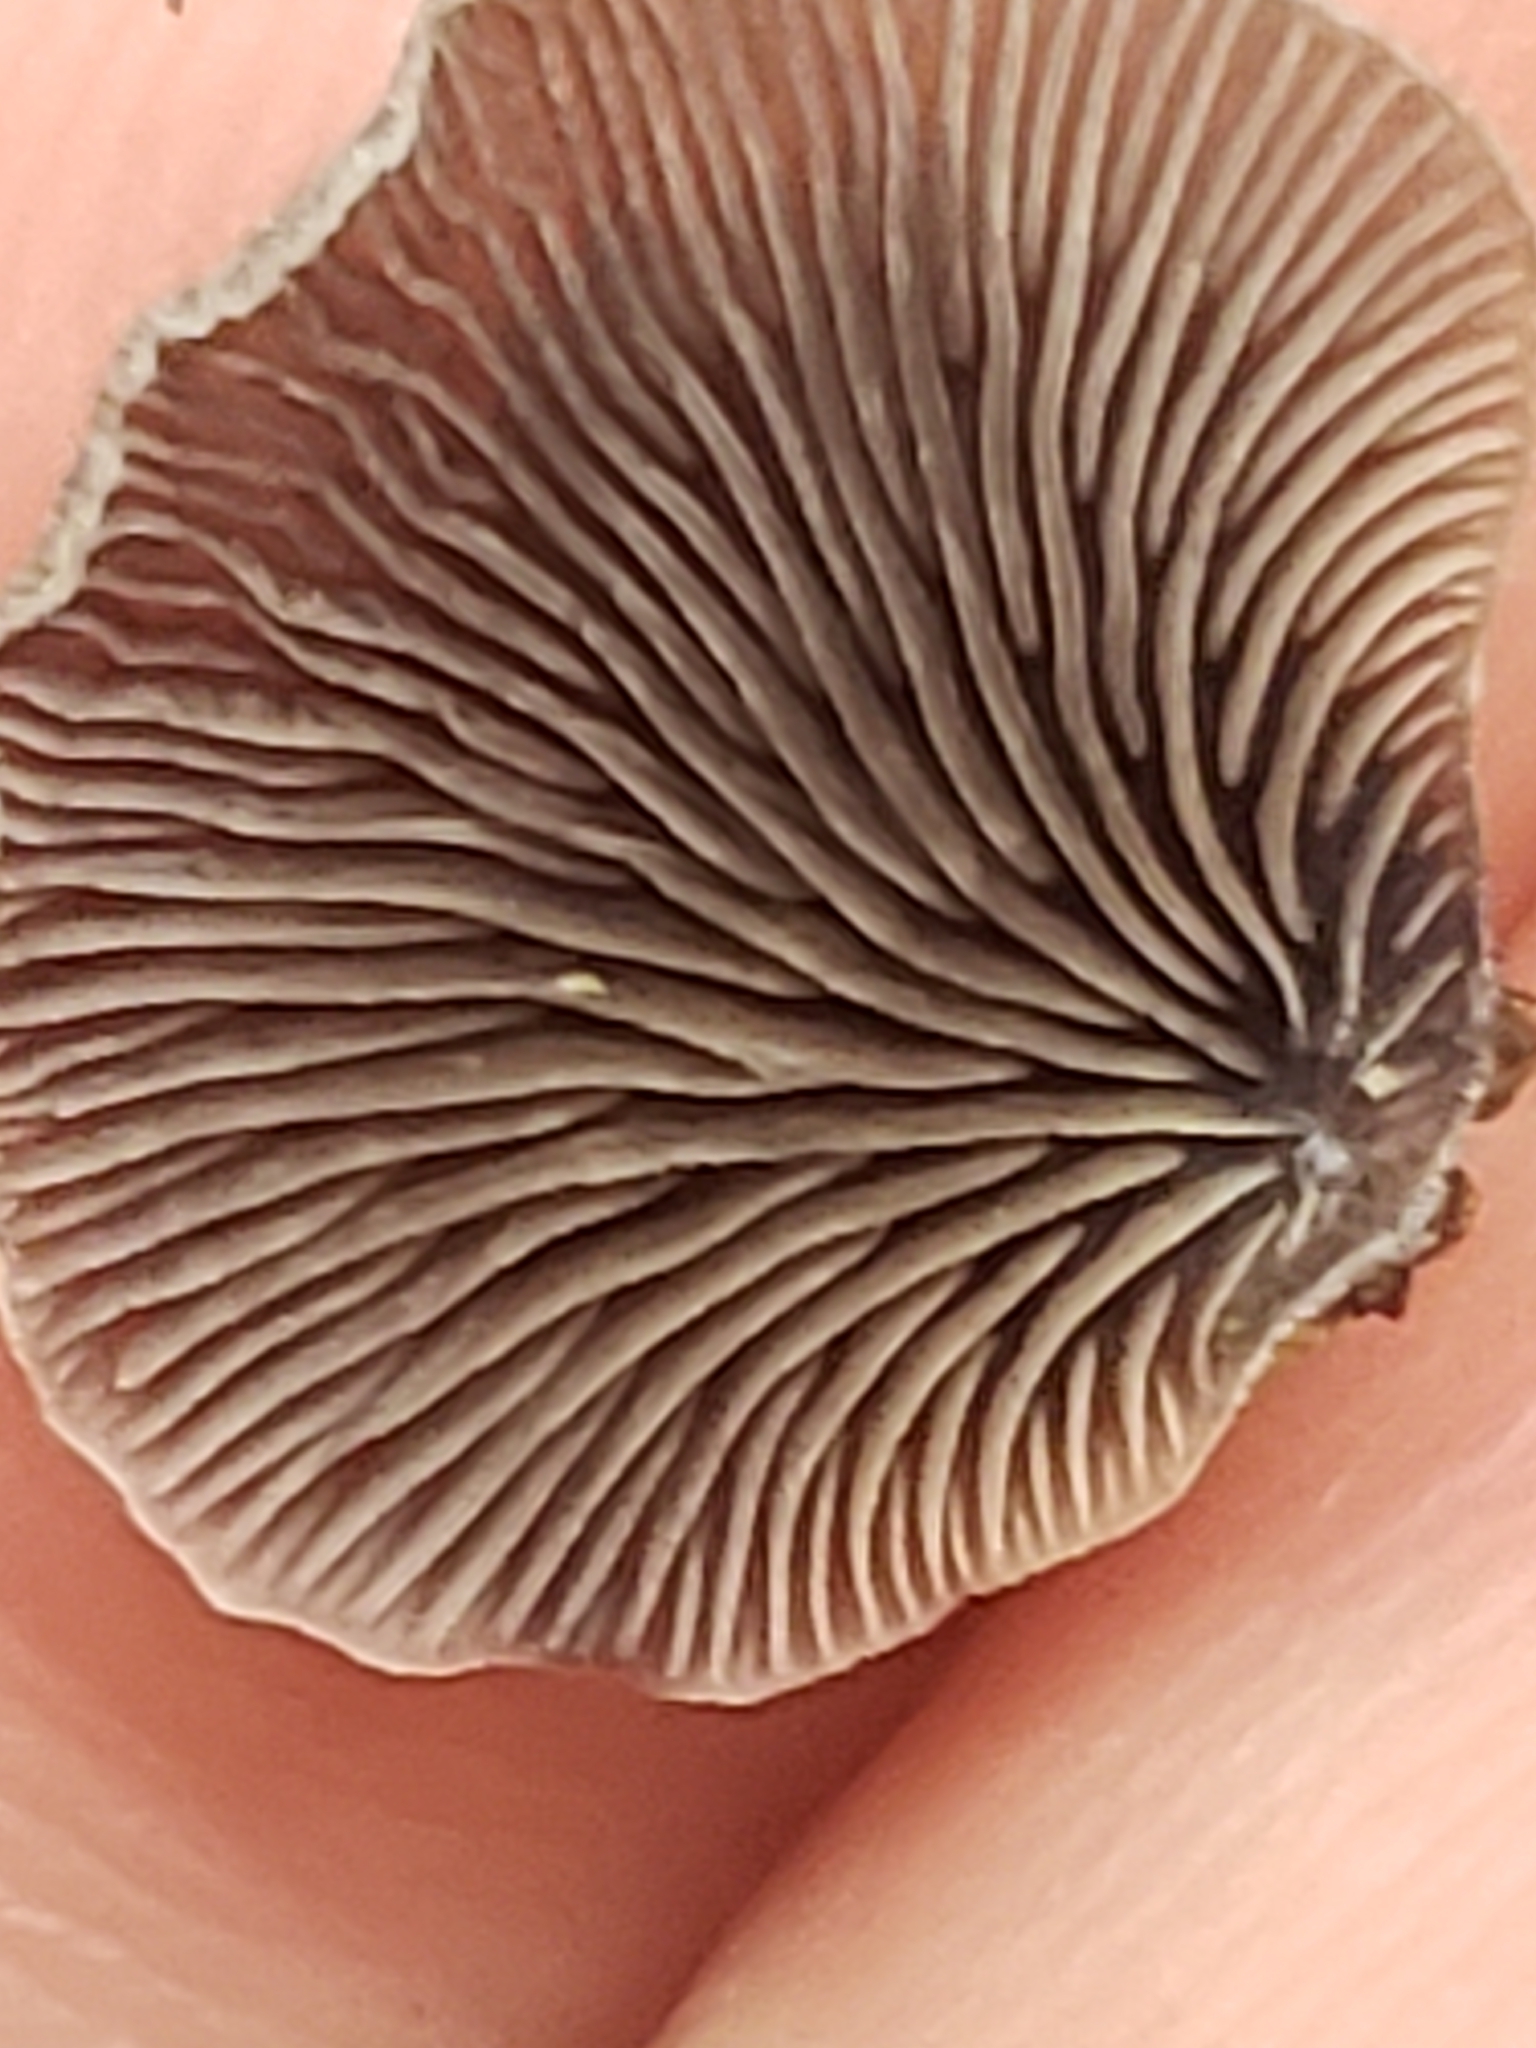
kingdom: Fungi
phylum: Basidiomycota
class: Agaricomycetes
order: Agaricales
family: Pleurotaceae
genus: Resupinatus
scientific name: Resupinatus applicatus
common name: Smoked oysterling
